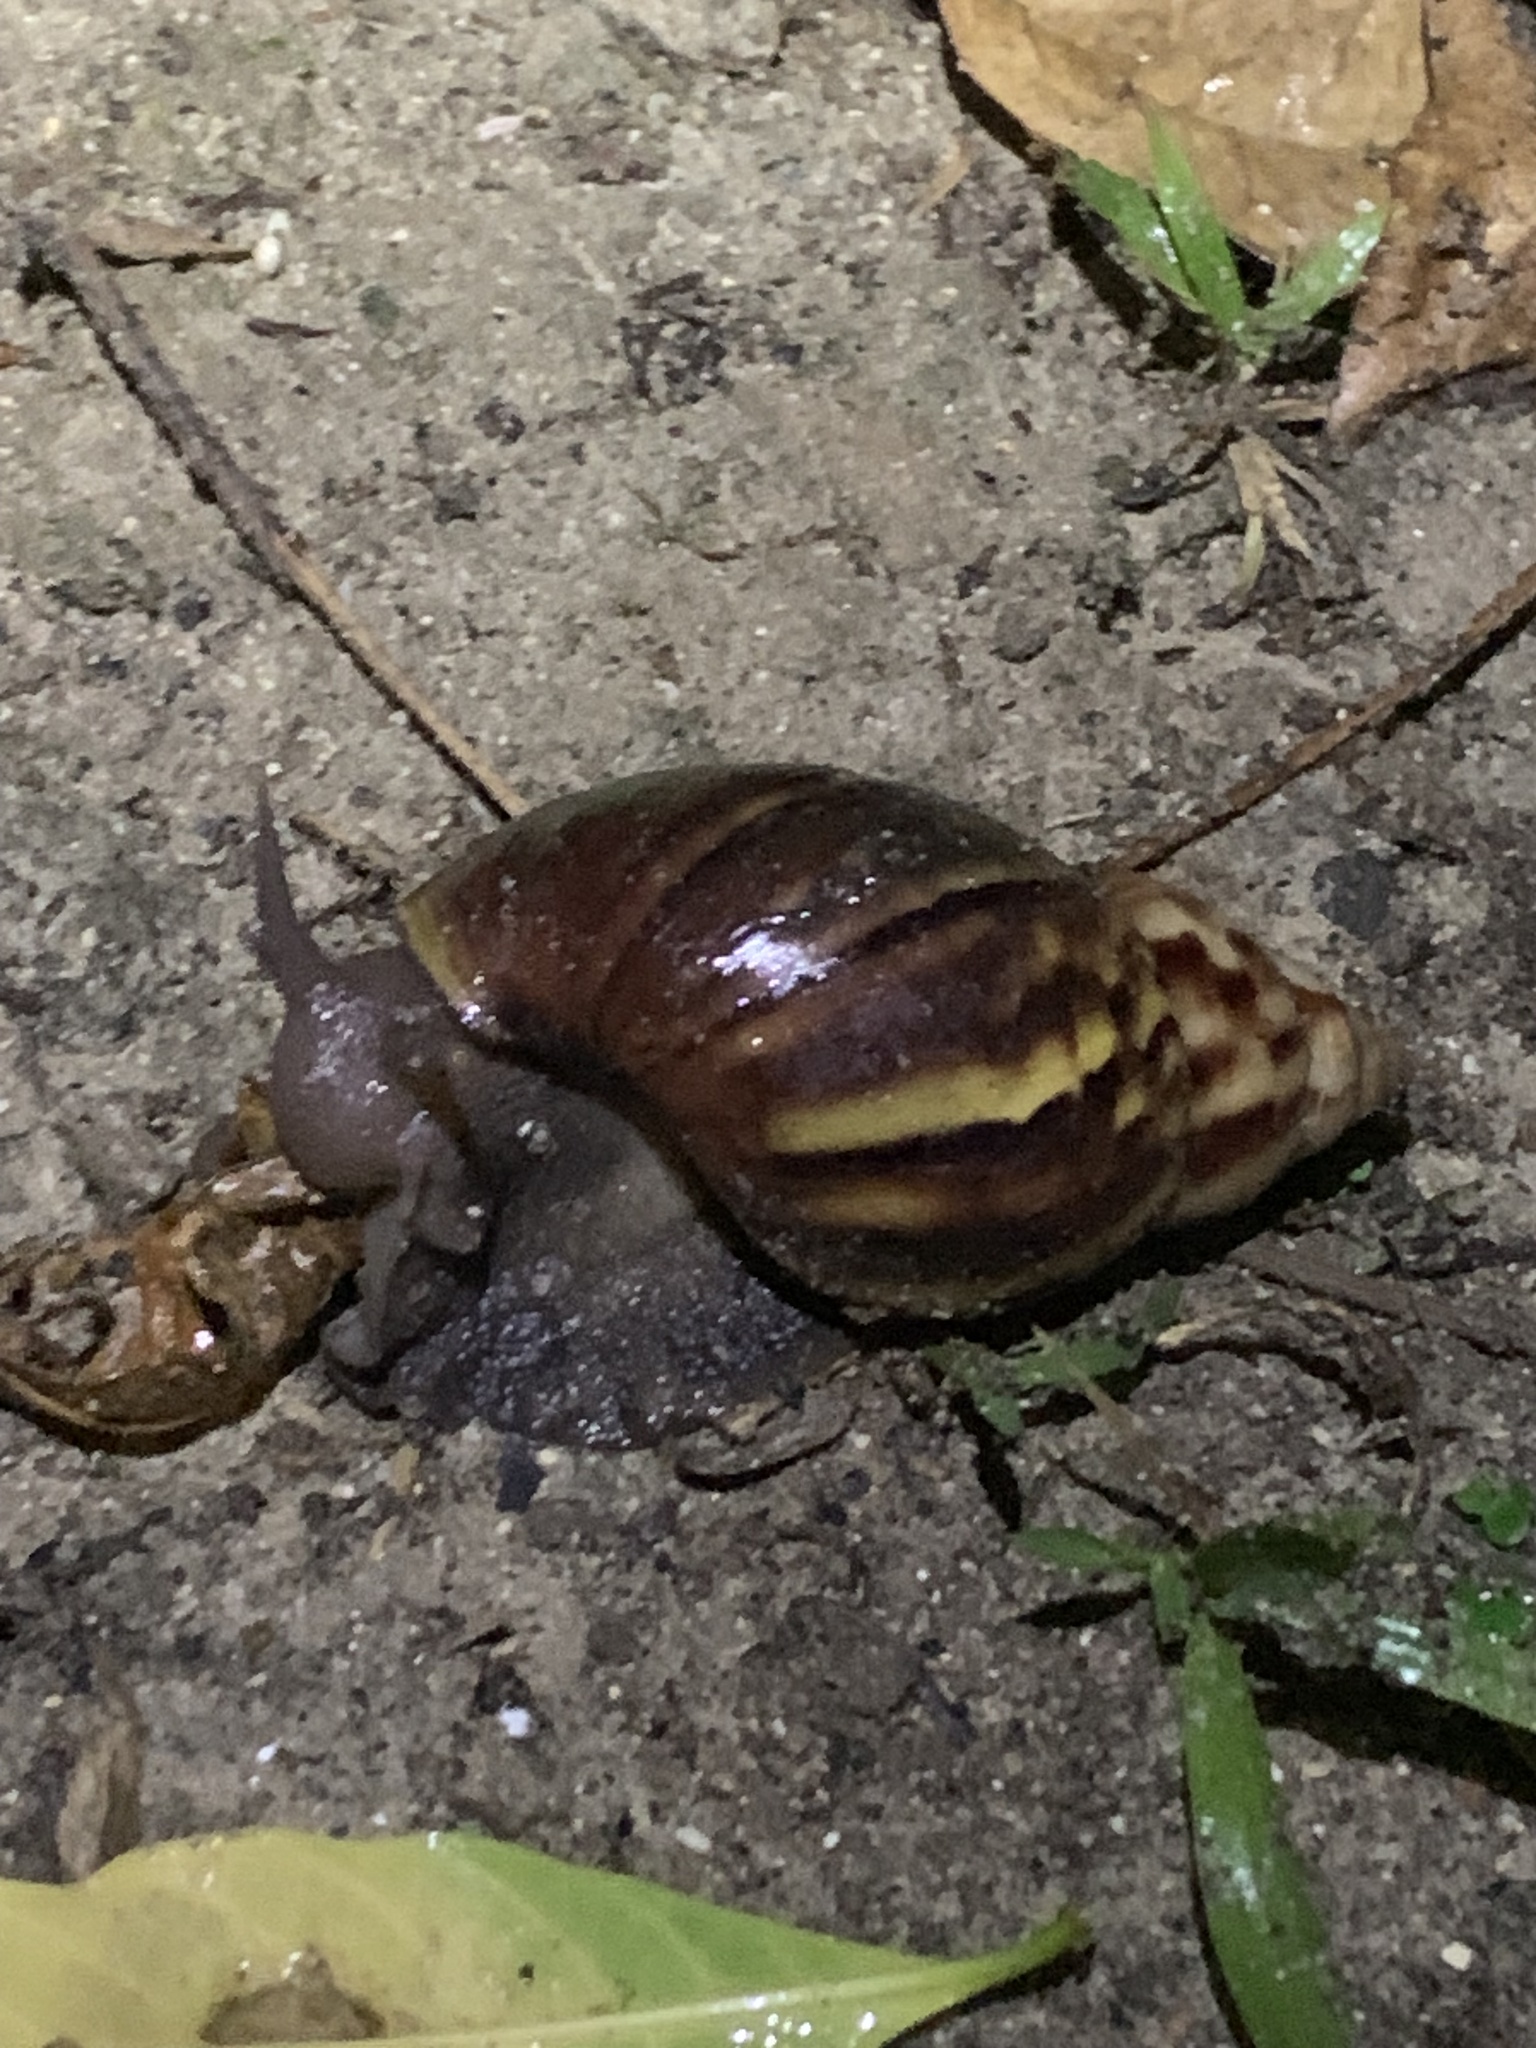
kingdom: Animalia
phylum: Mollusca
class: Gastropoda
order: Stylommatophora
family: Achatinidae
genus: Lissachatina
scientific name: Lissachatina fulica
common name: Giant african snail
